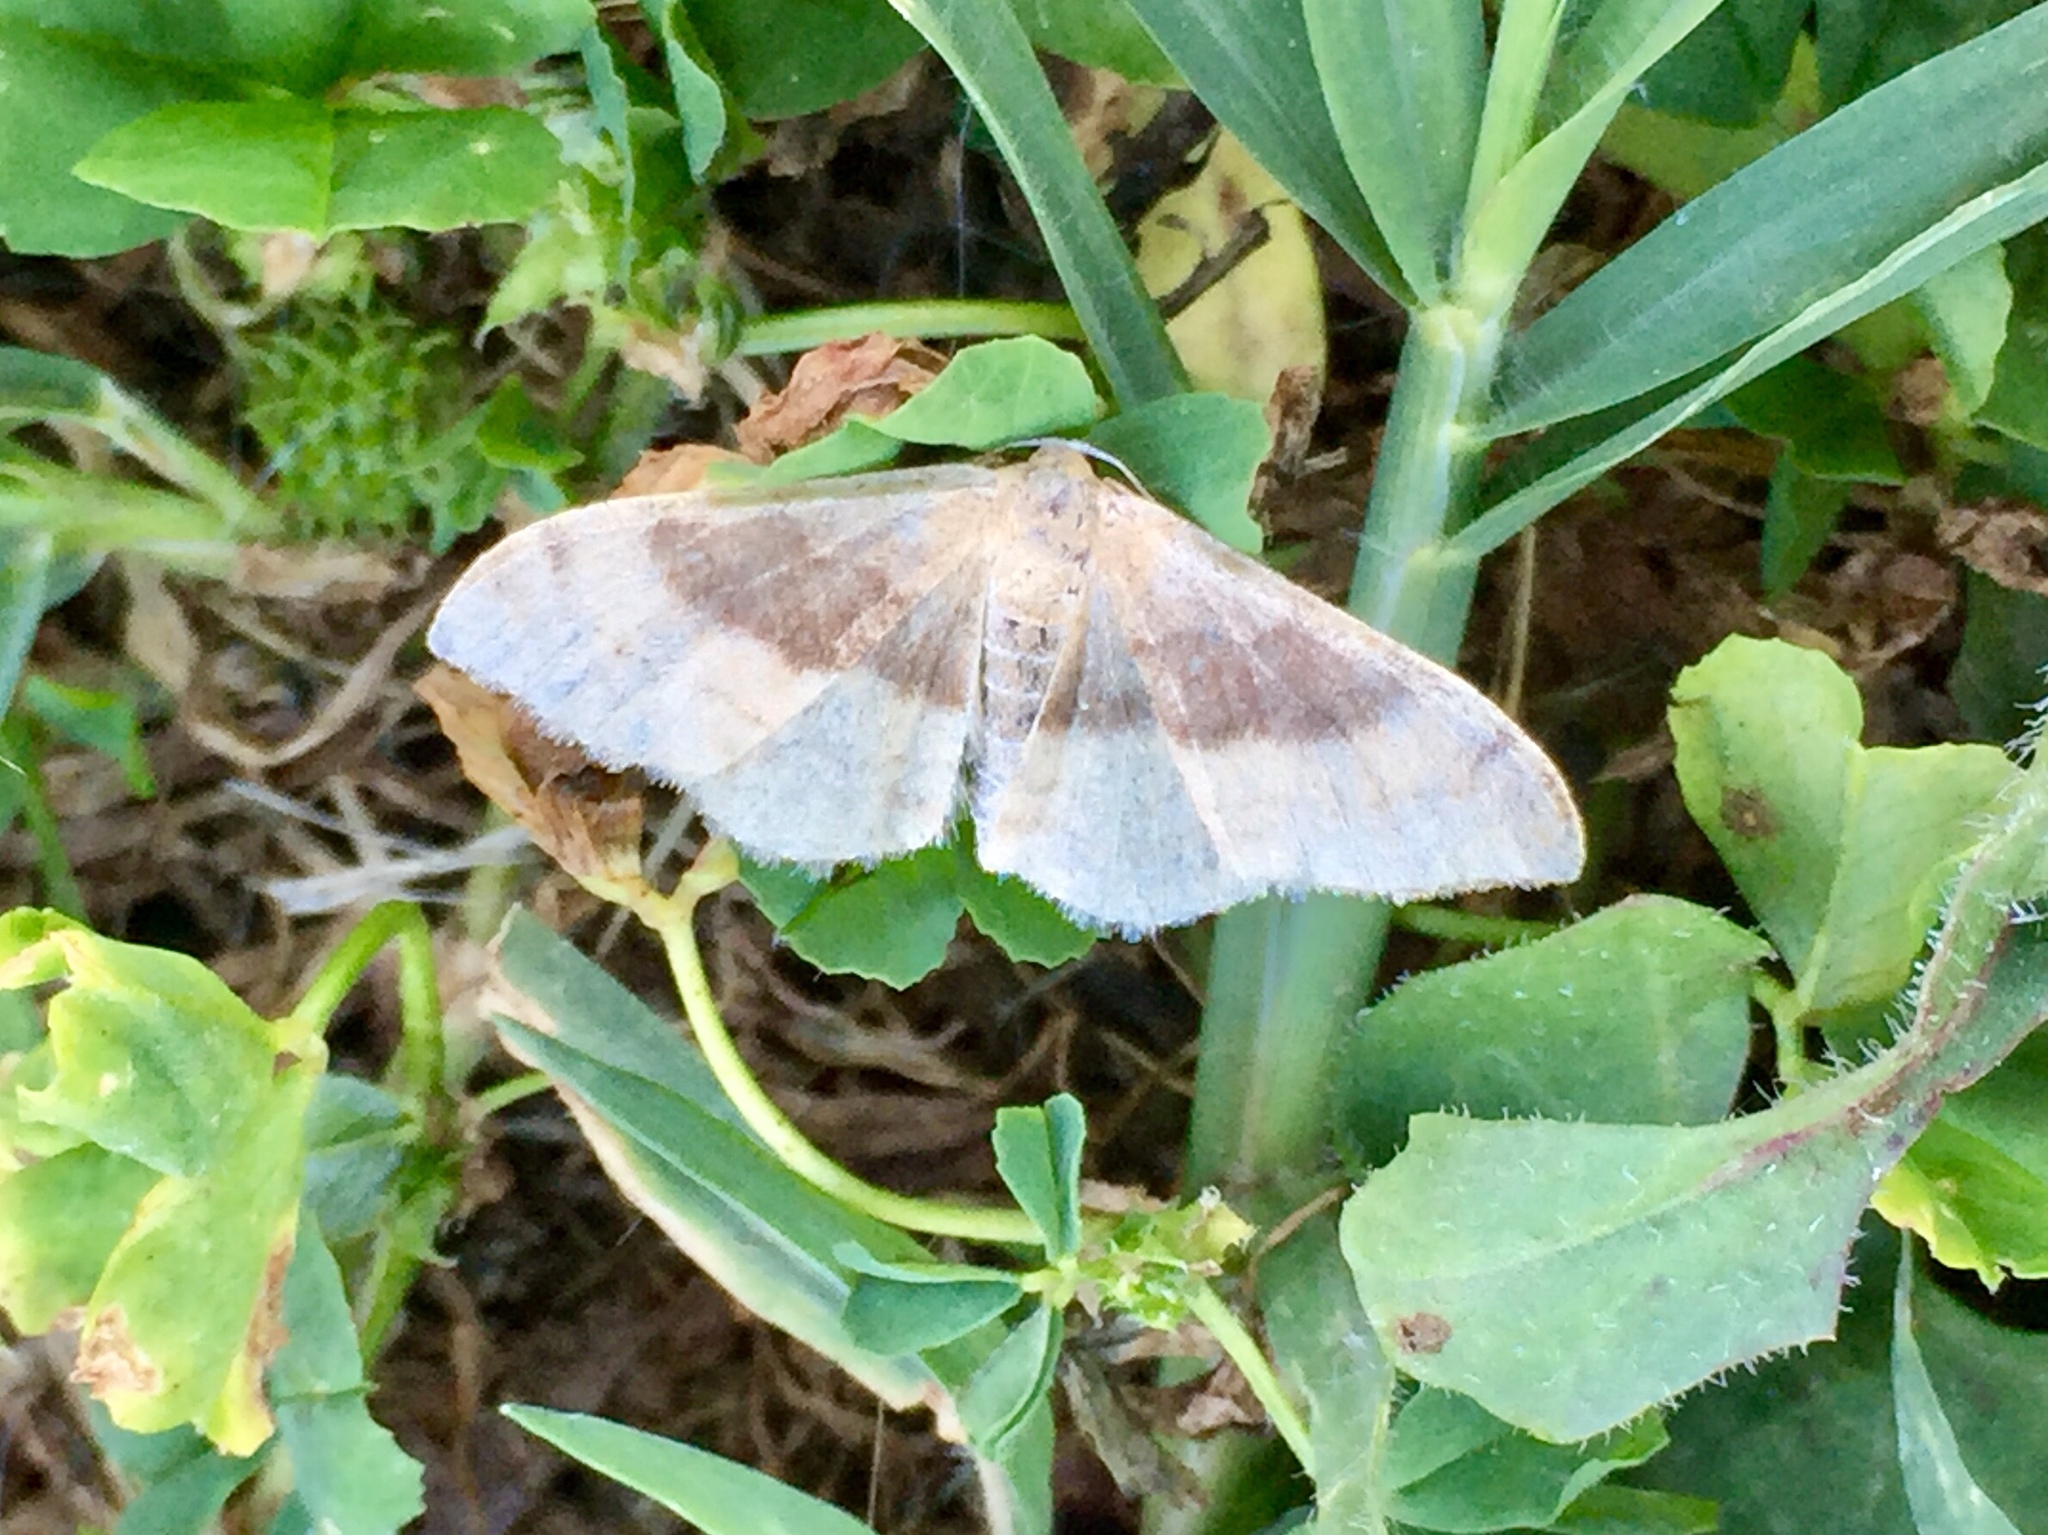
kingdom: Animalia
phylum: Arthropoda
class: Insecta
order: Lepidoptera
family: Geometridae
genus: Idaea
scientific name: Idaea degeneraria
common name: Portland ribbon wave
